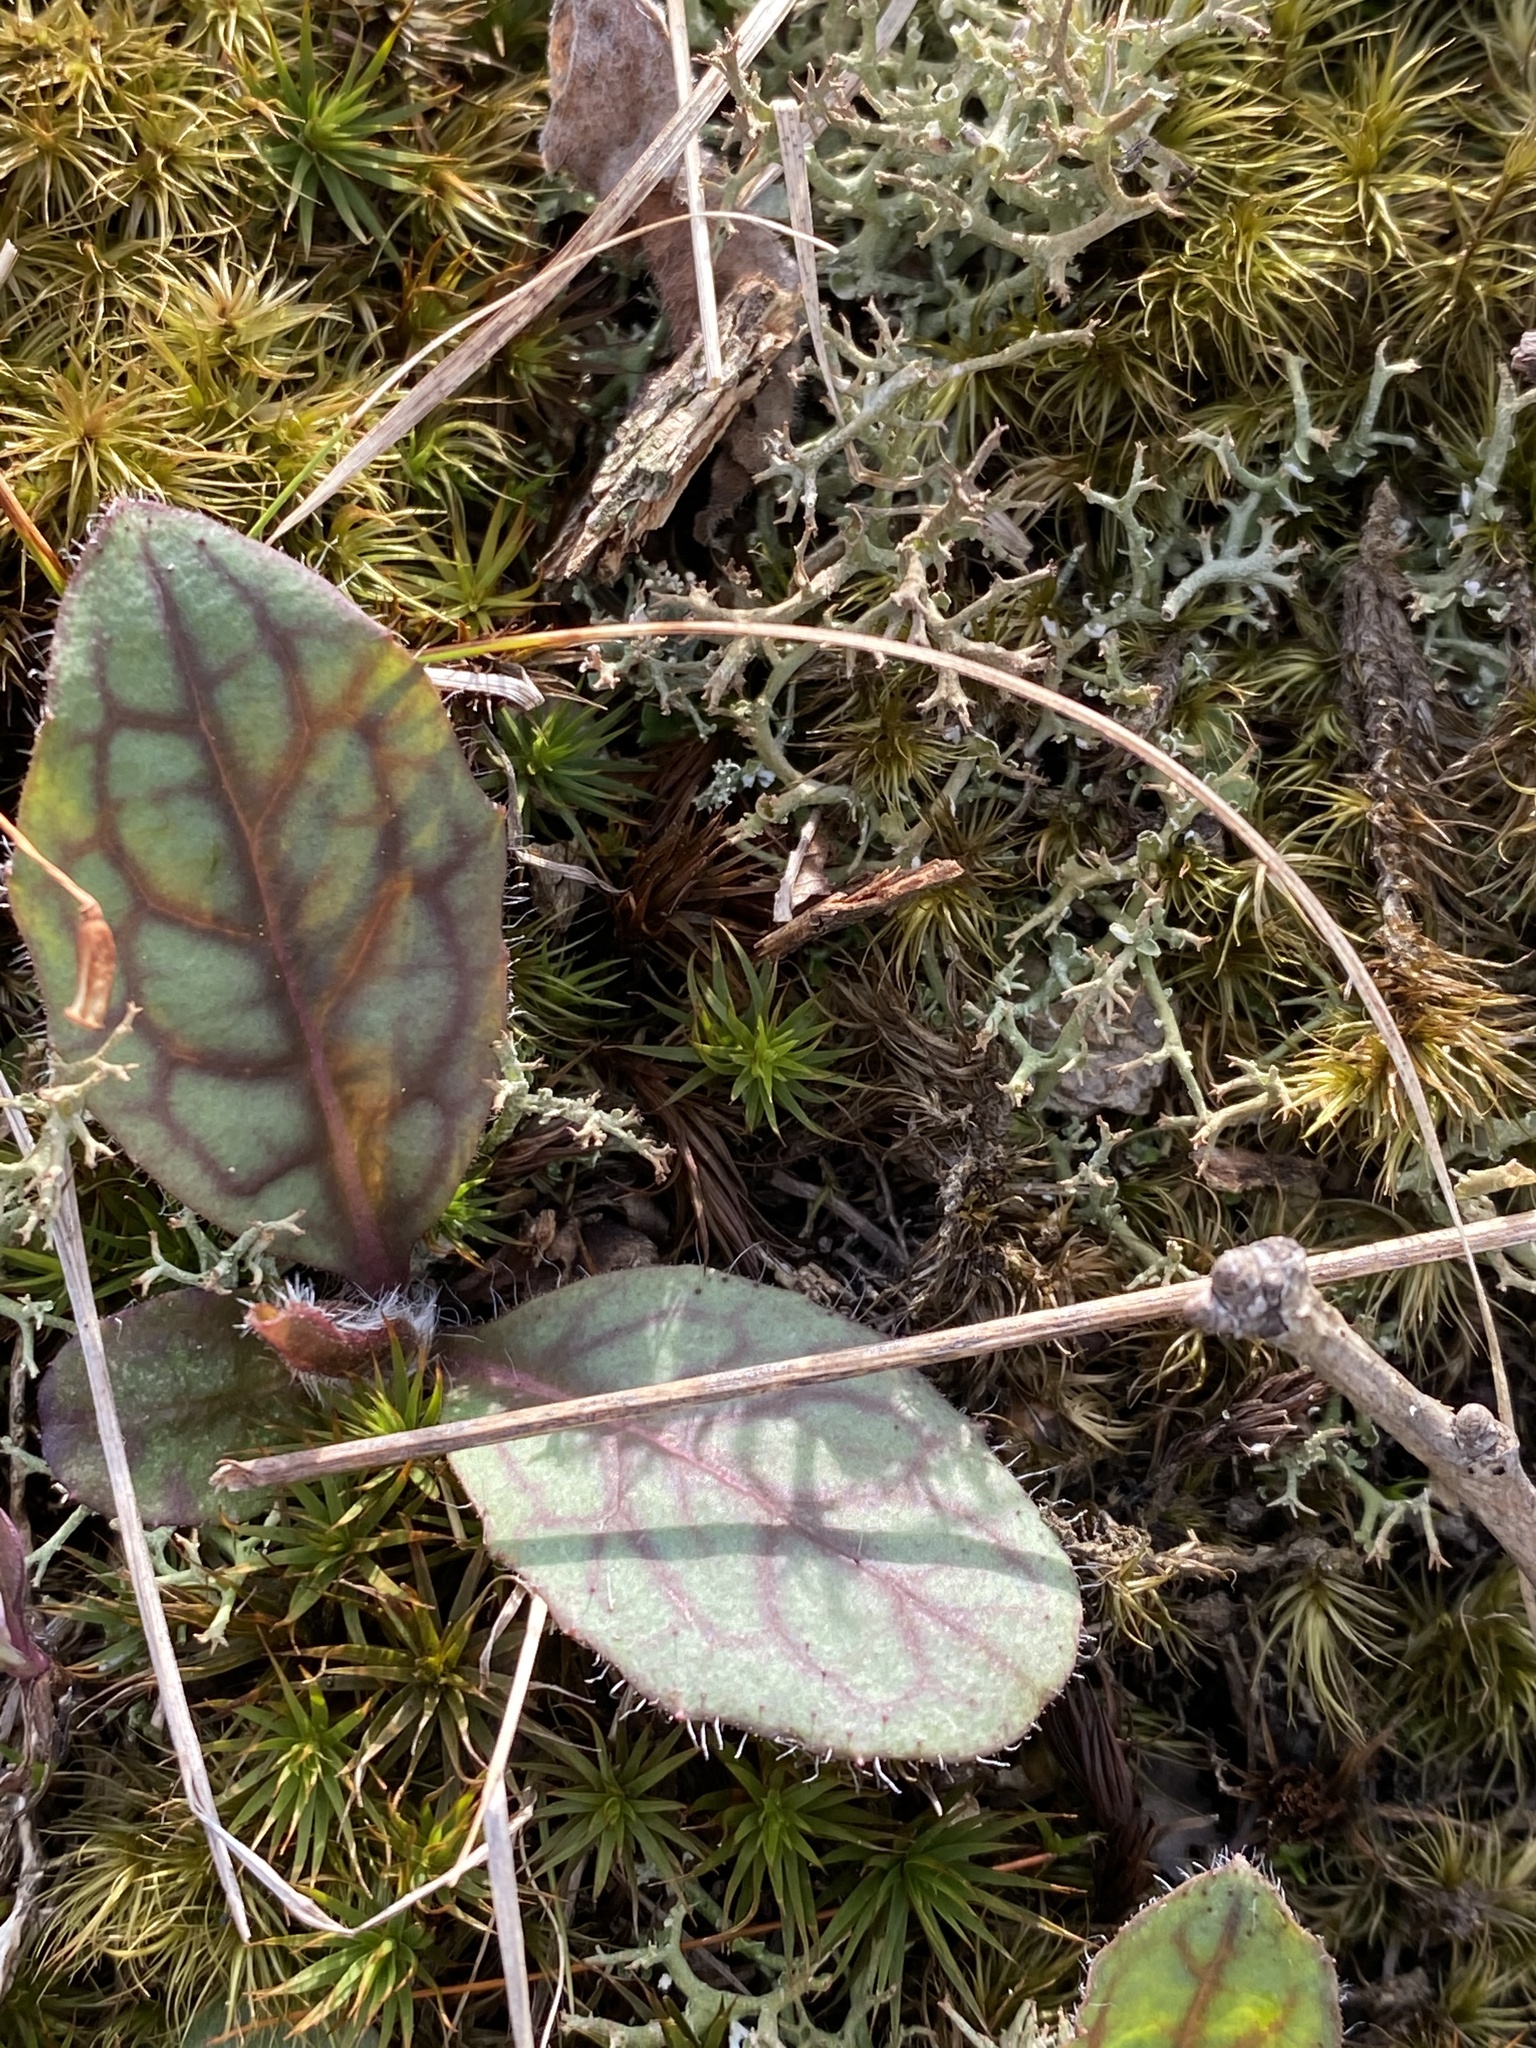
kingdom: Plantae
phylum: Tracheophyta
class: Magnoliopsida
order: Asterales
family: Asteraceae
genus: Hieracium
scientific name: Hieracium venosum
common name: Rattlesnake hawkweed
